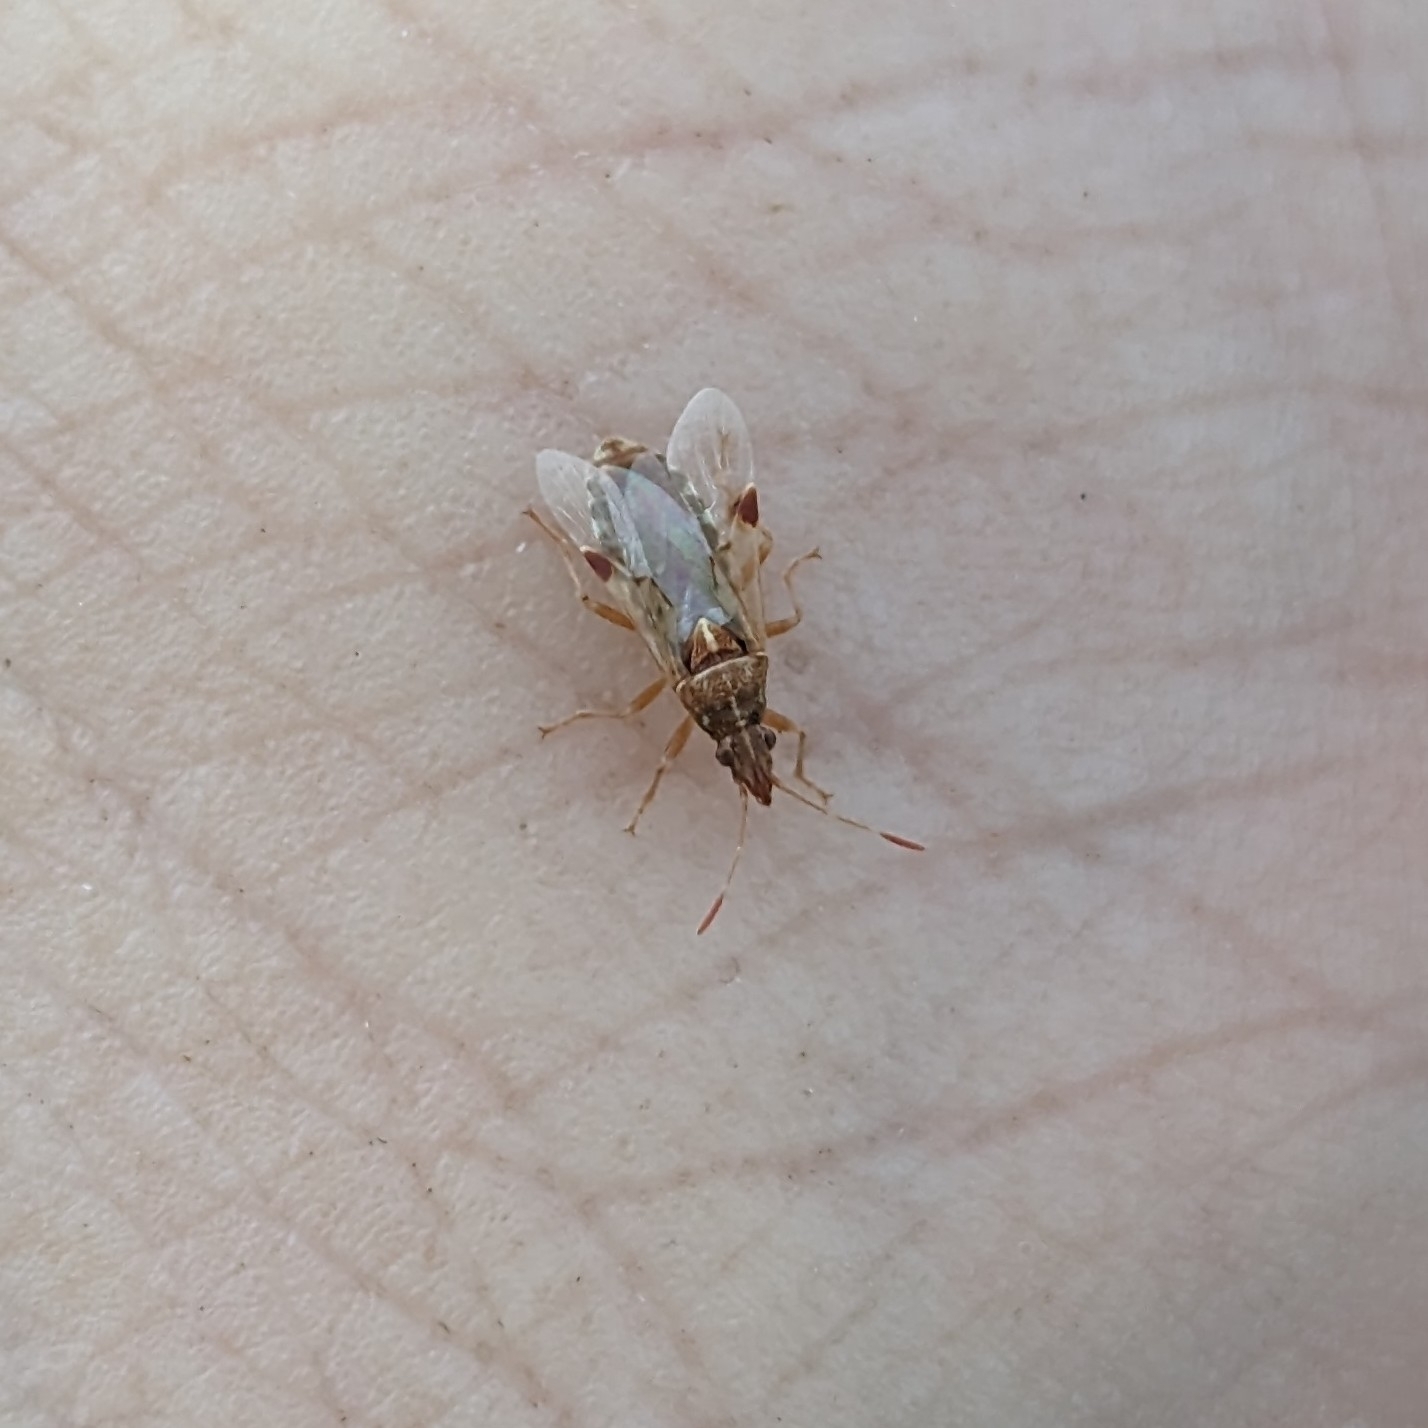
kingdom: Animalia
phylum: Arthropoda
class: Insecta
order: Hemiptera
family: Lygaeidae
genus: Belonochilus
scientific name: Belonochilus numenius
